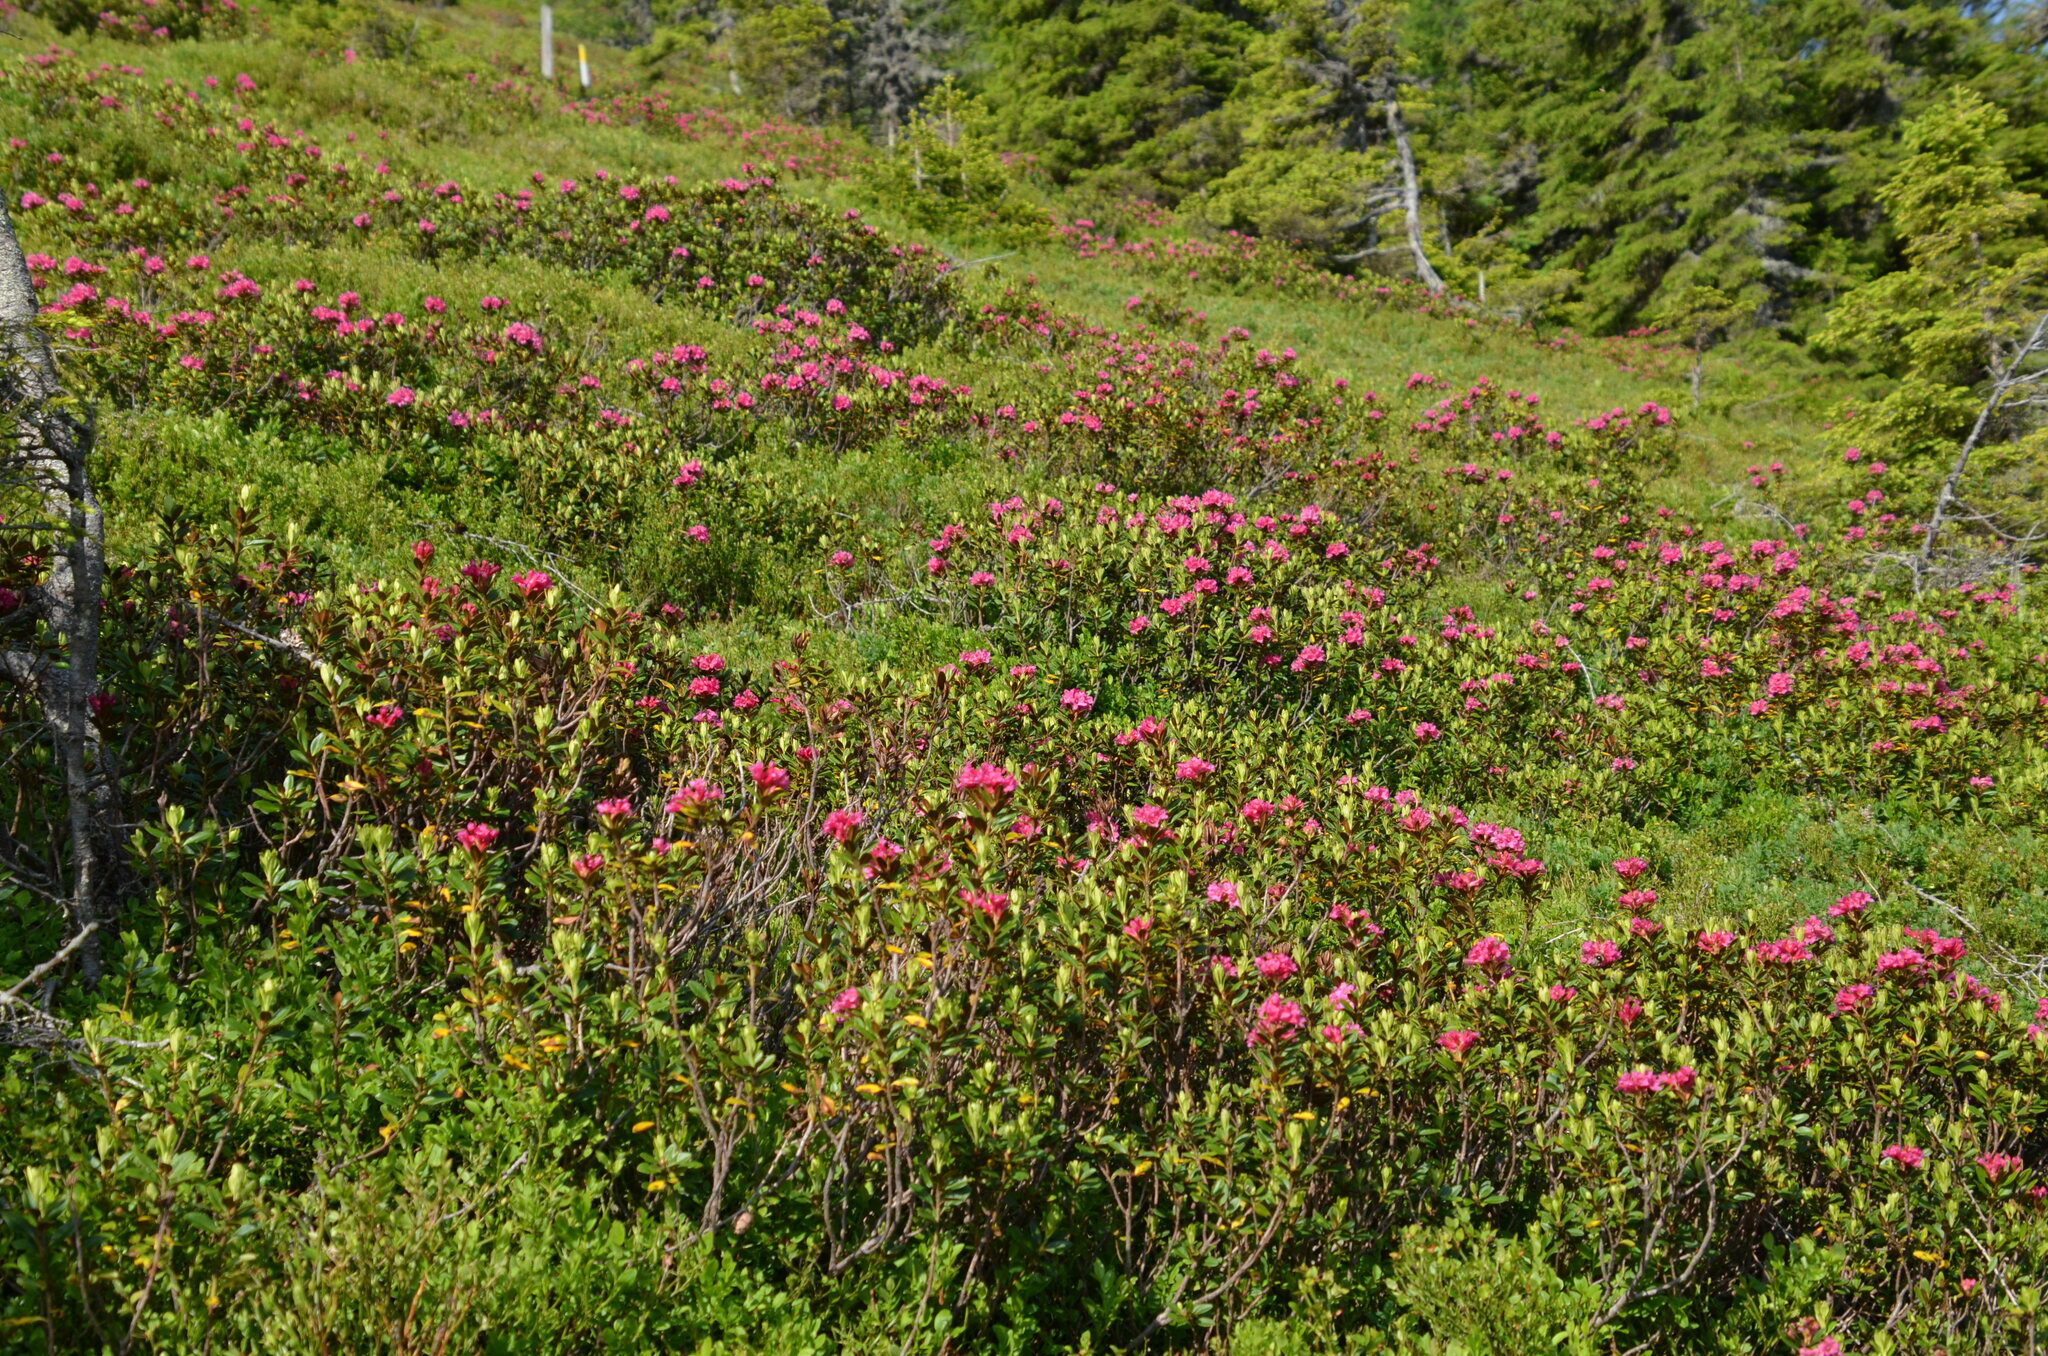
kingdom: Plantae
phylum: Tracheophyta
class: Magnoliopsida
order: Ericales
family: Ericaceae
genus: Rhododendron
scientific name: Rhododendron ferrugineum
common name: Alpenrose
